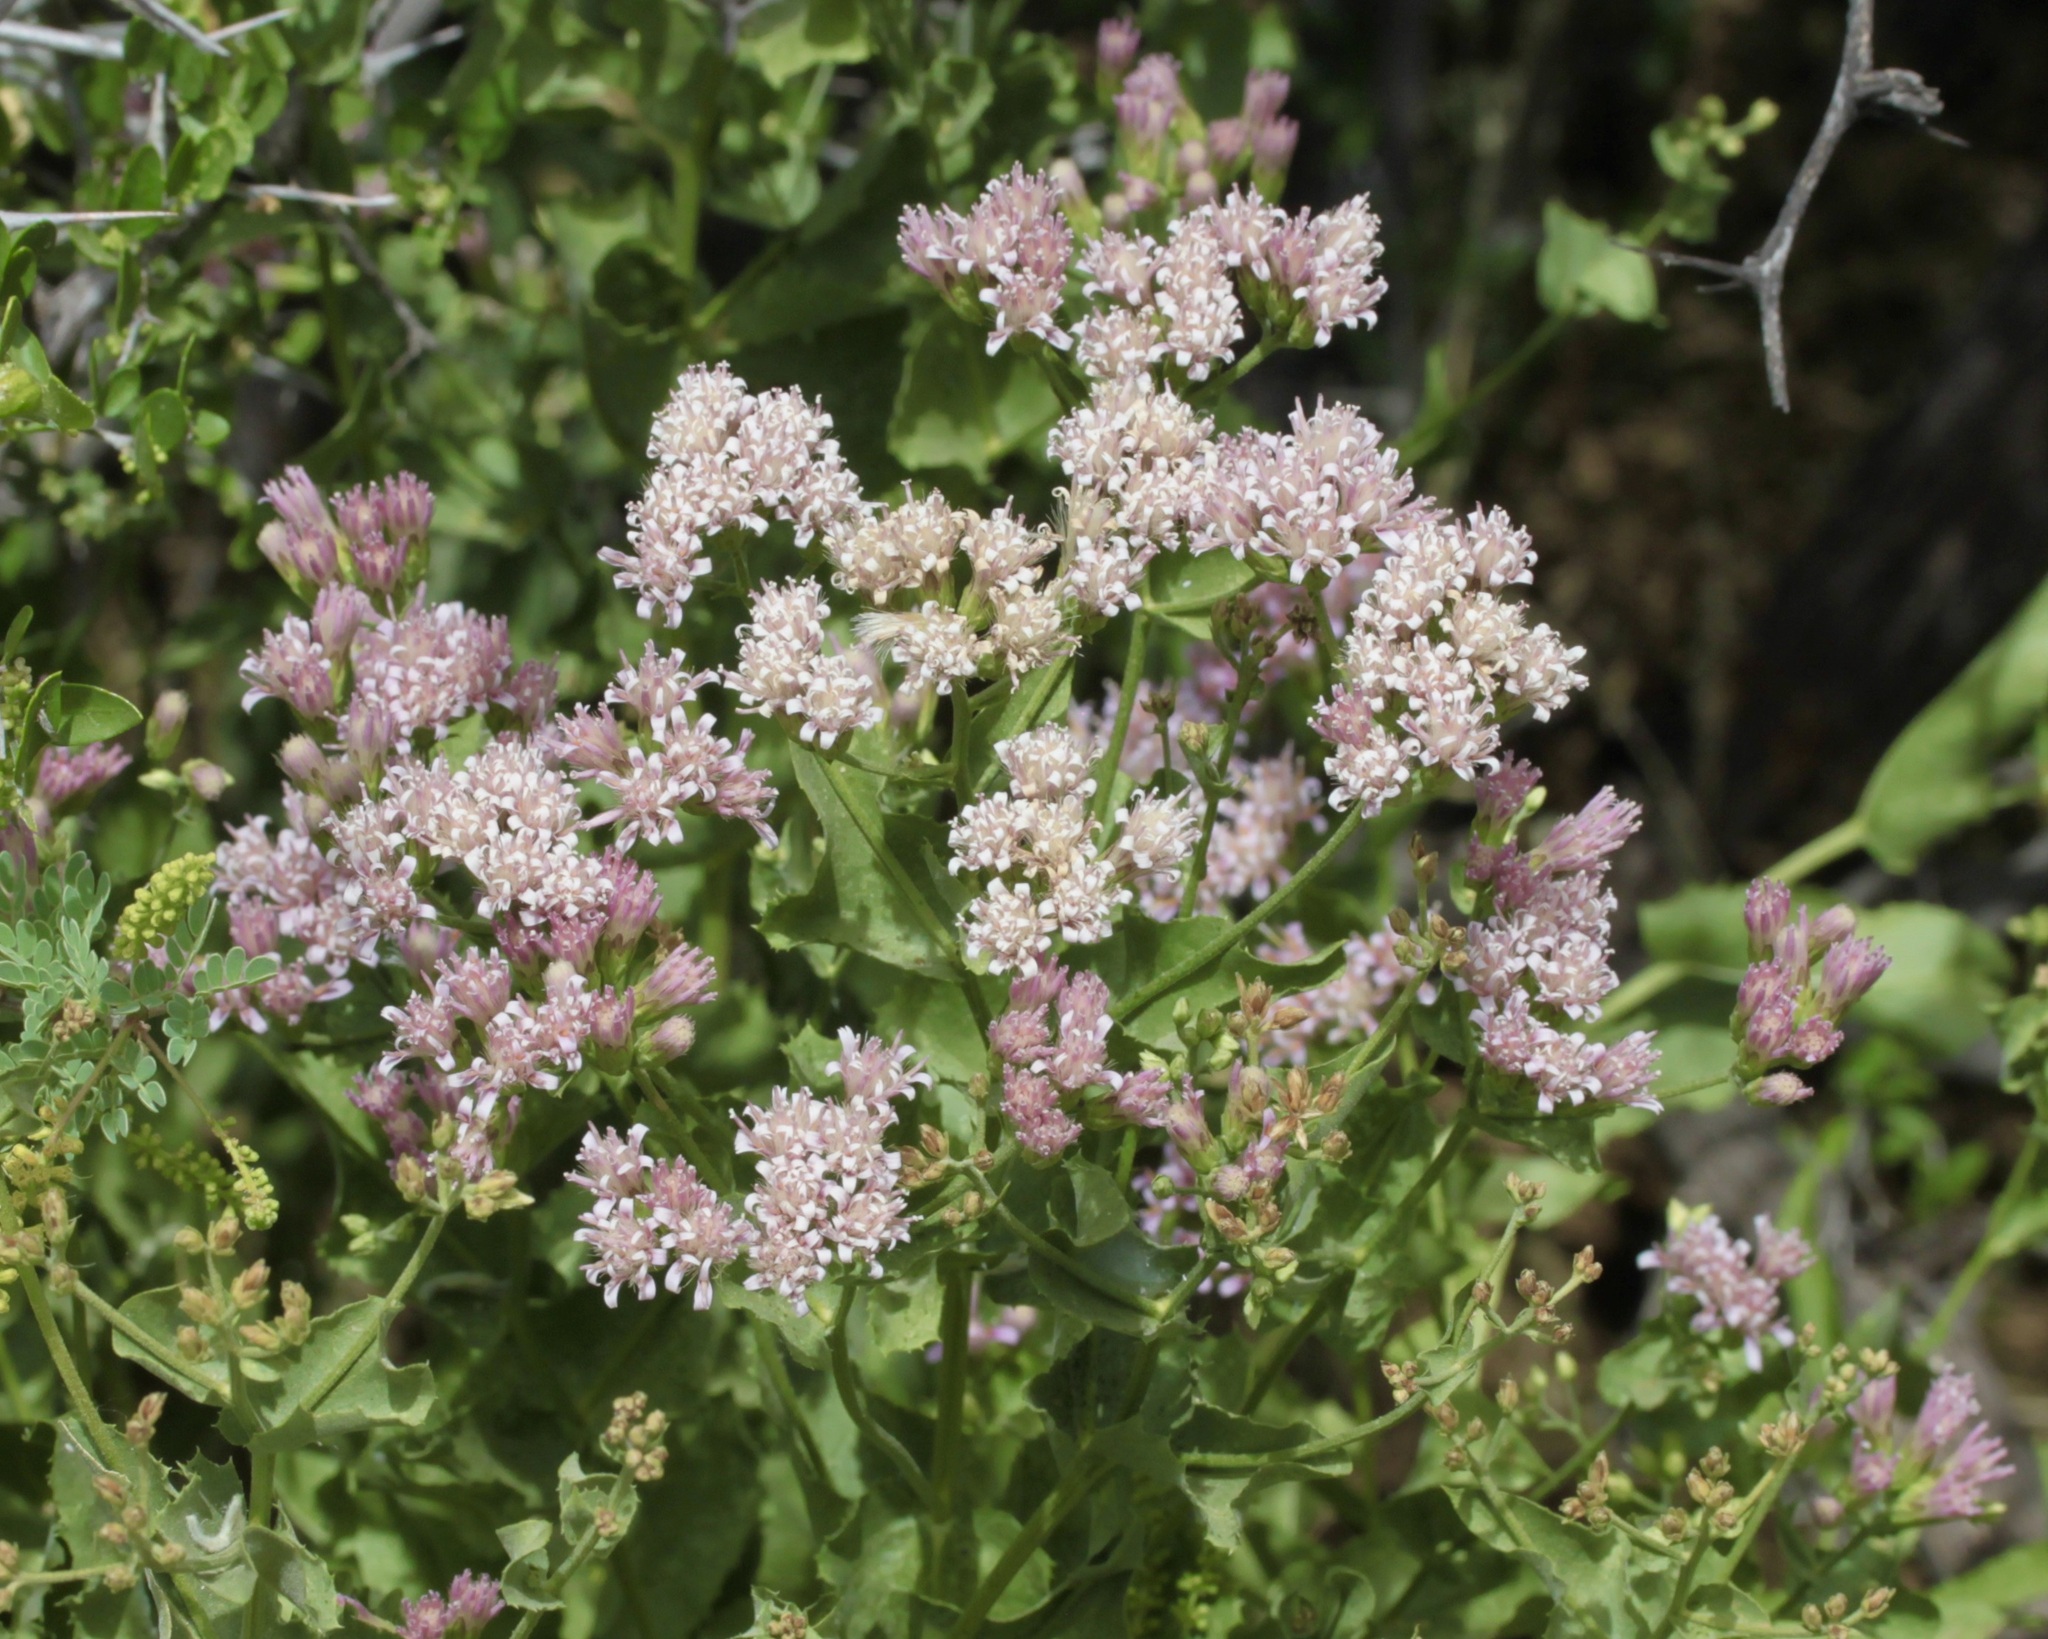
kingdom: Plantae
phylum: Tracheophyta
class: Magnoliopsida
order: Asterales
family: Asteraceae
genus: Acourtia
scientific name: Acourtia wrightii
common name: Brownfoot
